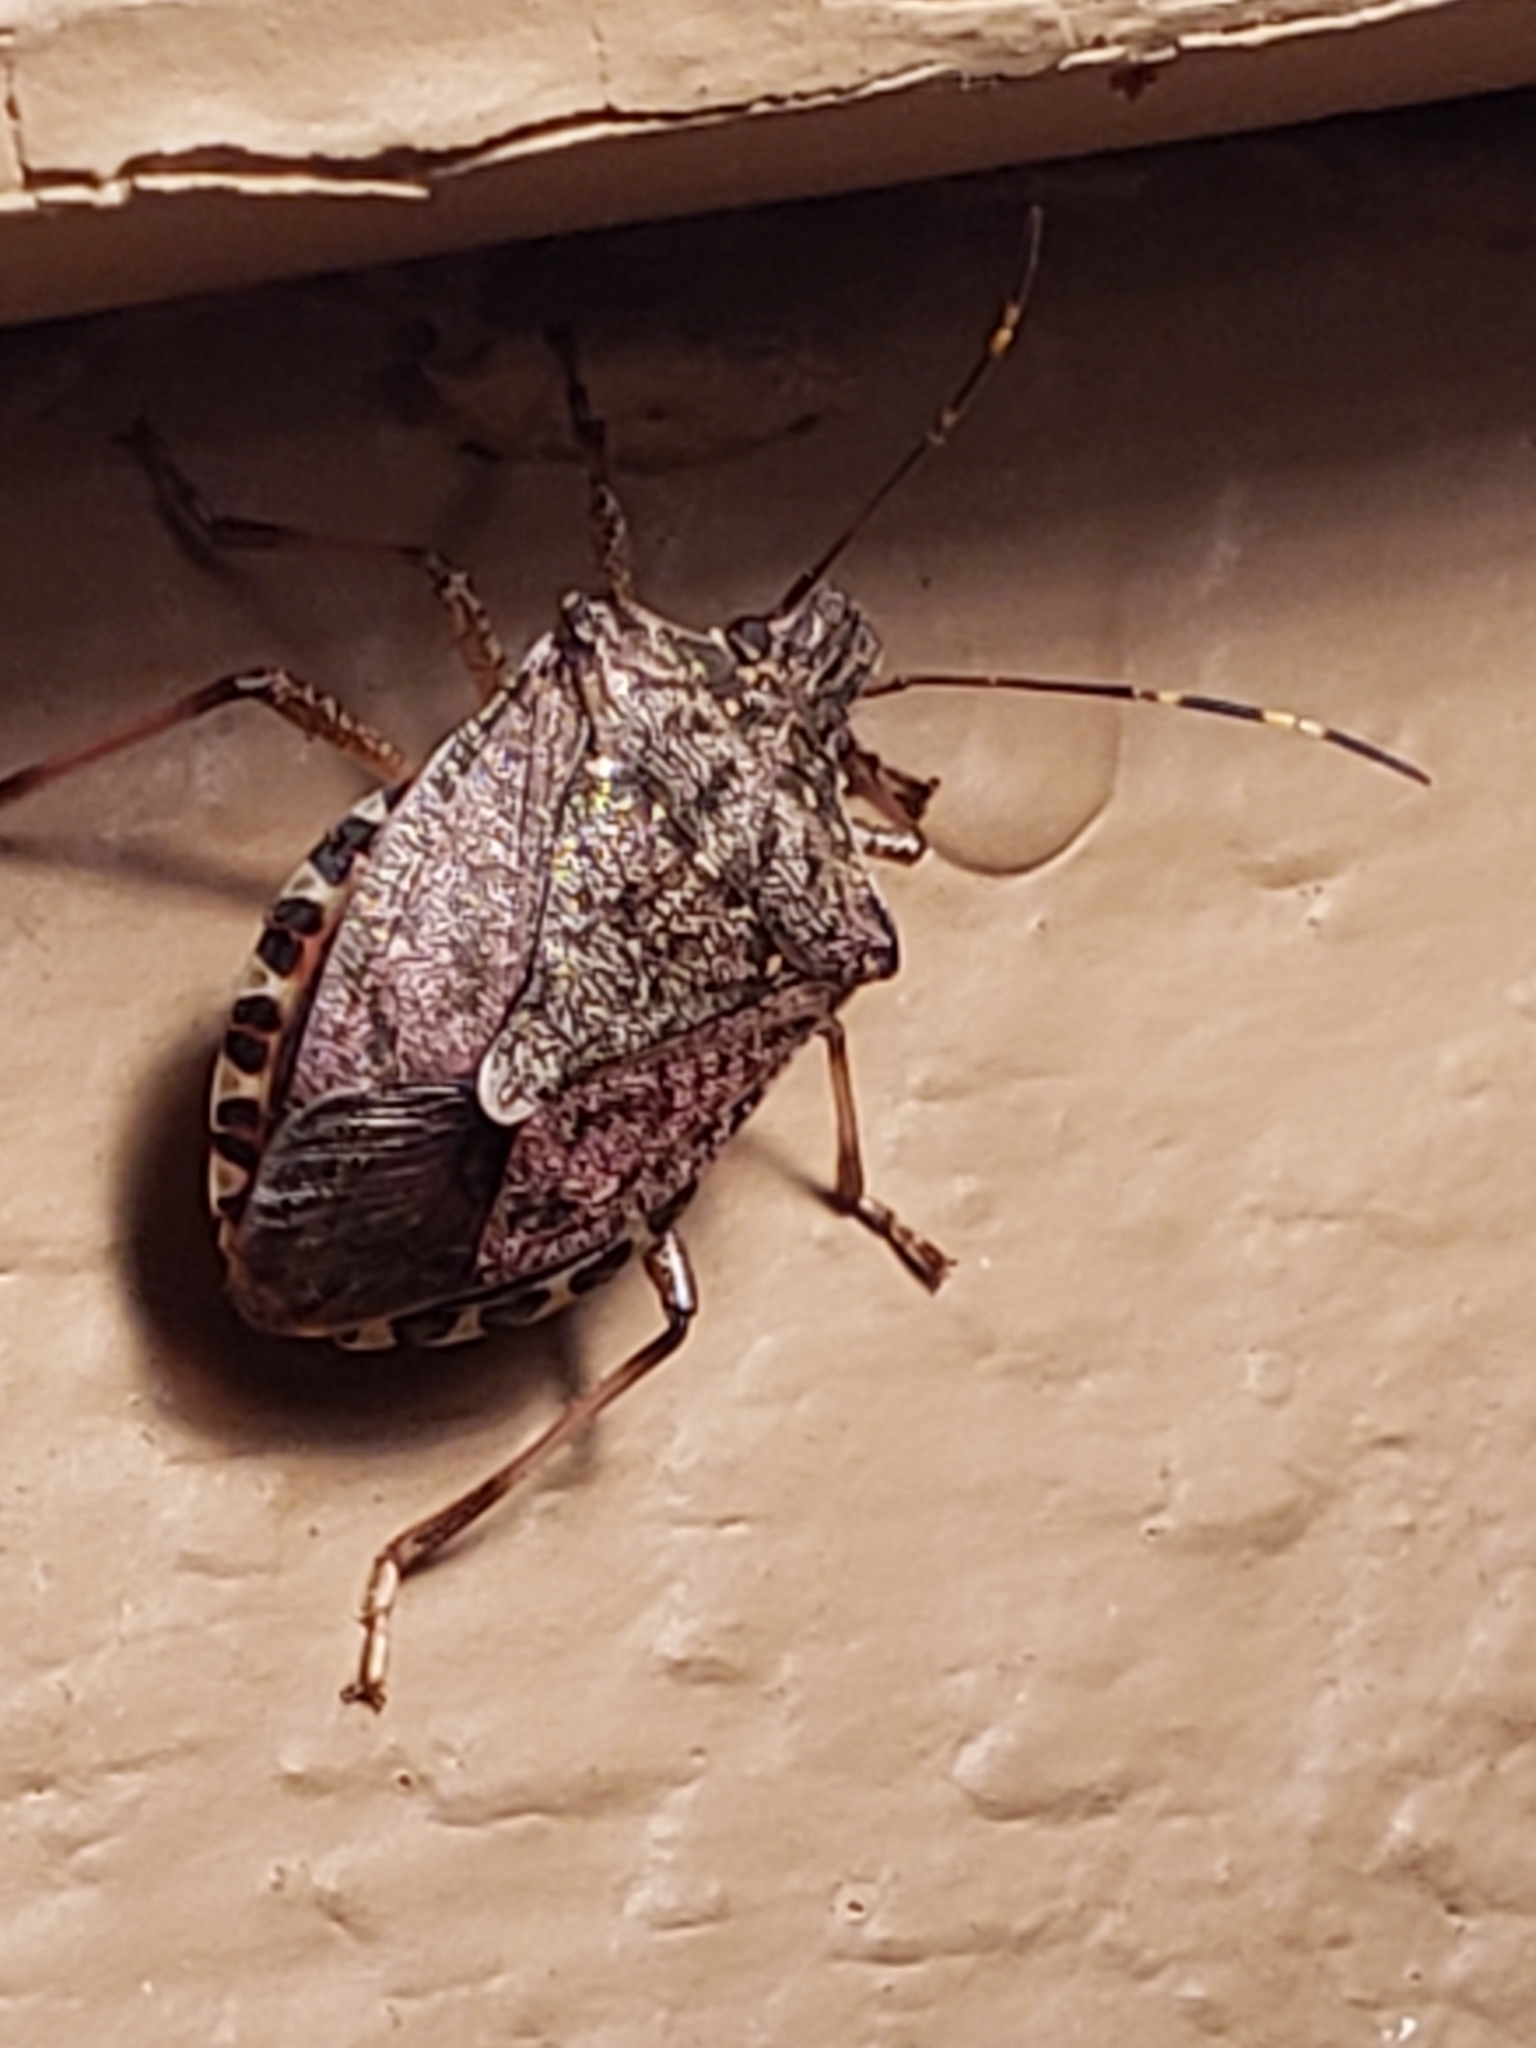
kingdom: Animalia
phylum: Arthropoda
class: Insecta
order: Hemiptera
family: Pentatomidae
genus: Halyomorpha
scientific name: Halyomorpha halys
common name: Brown marmorated stink bug
